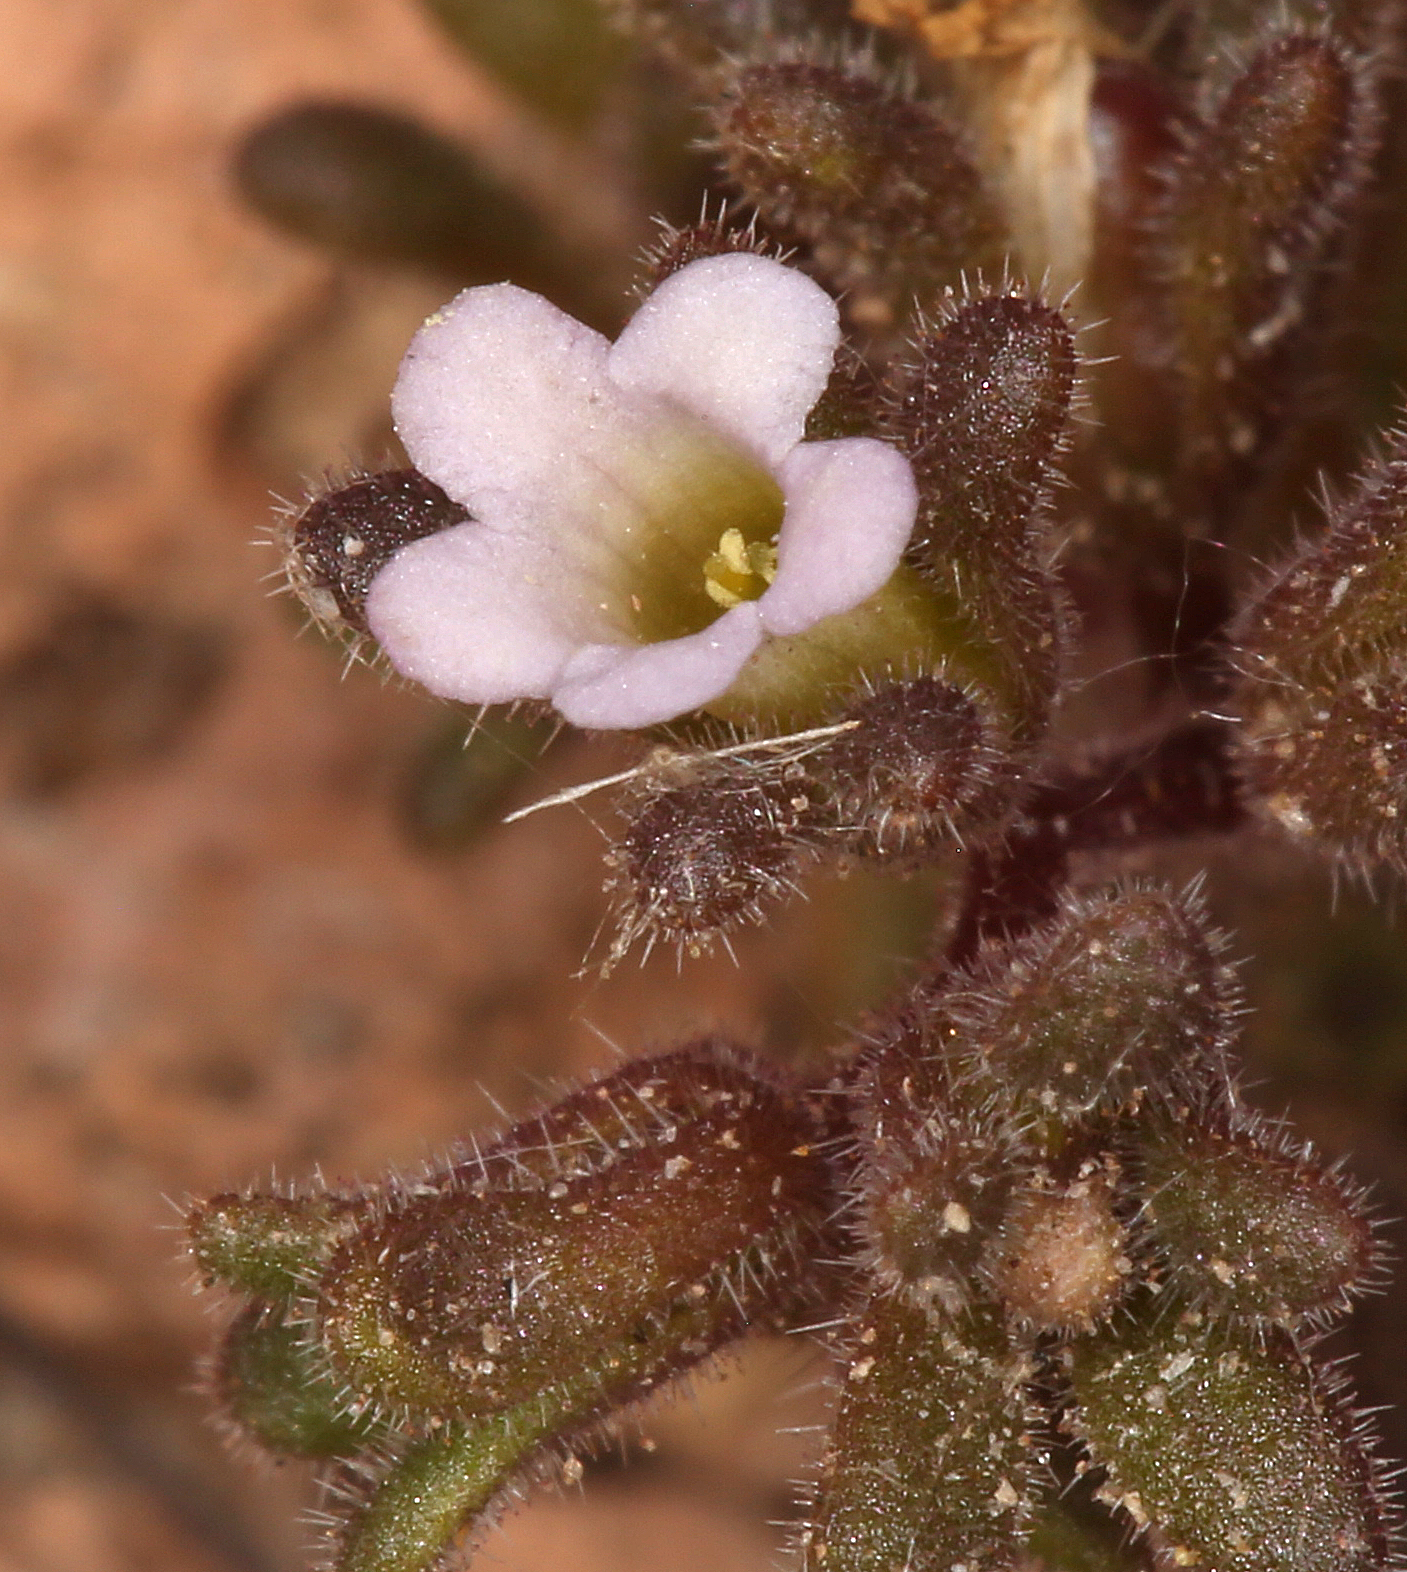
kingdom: Plantae
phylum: Tracheophyta
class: Magnoliopsida
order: Boraginales
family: Hydrophyllaceae
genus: Phacelia
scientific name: Phacelia saxicola
